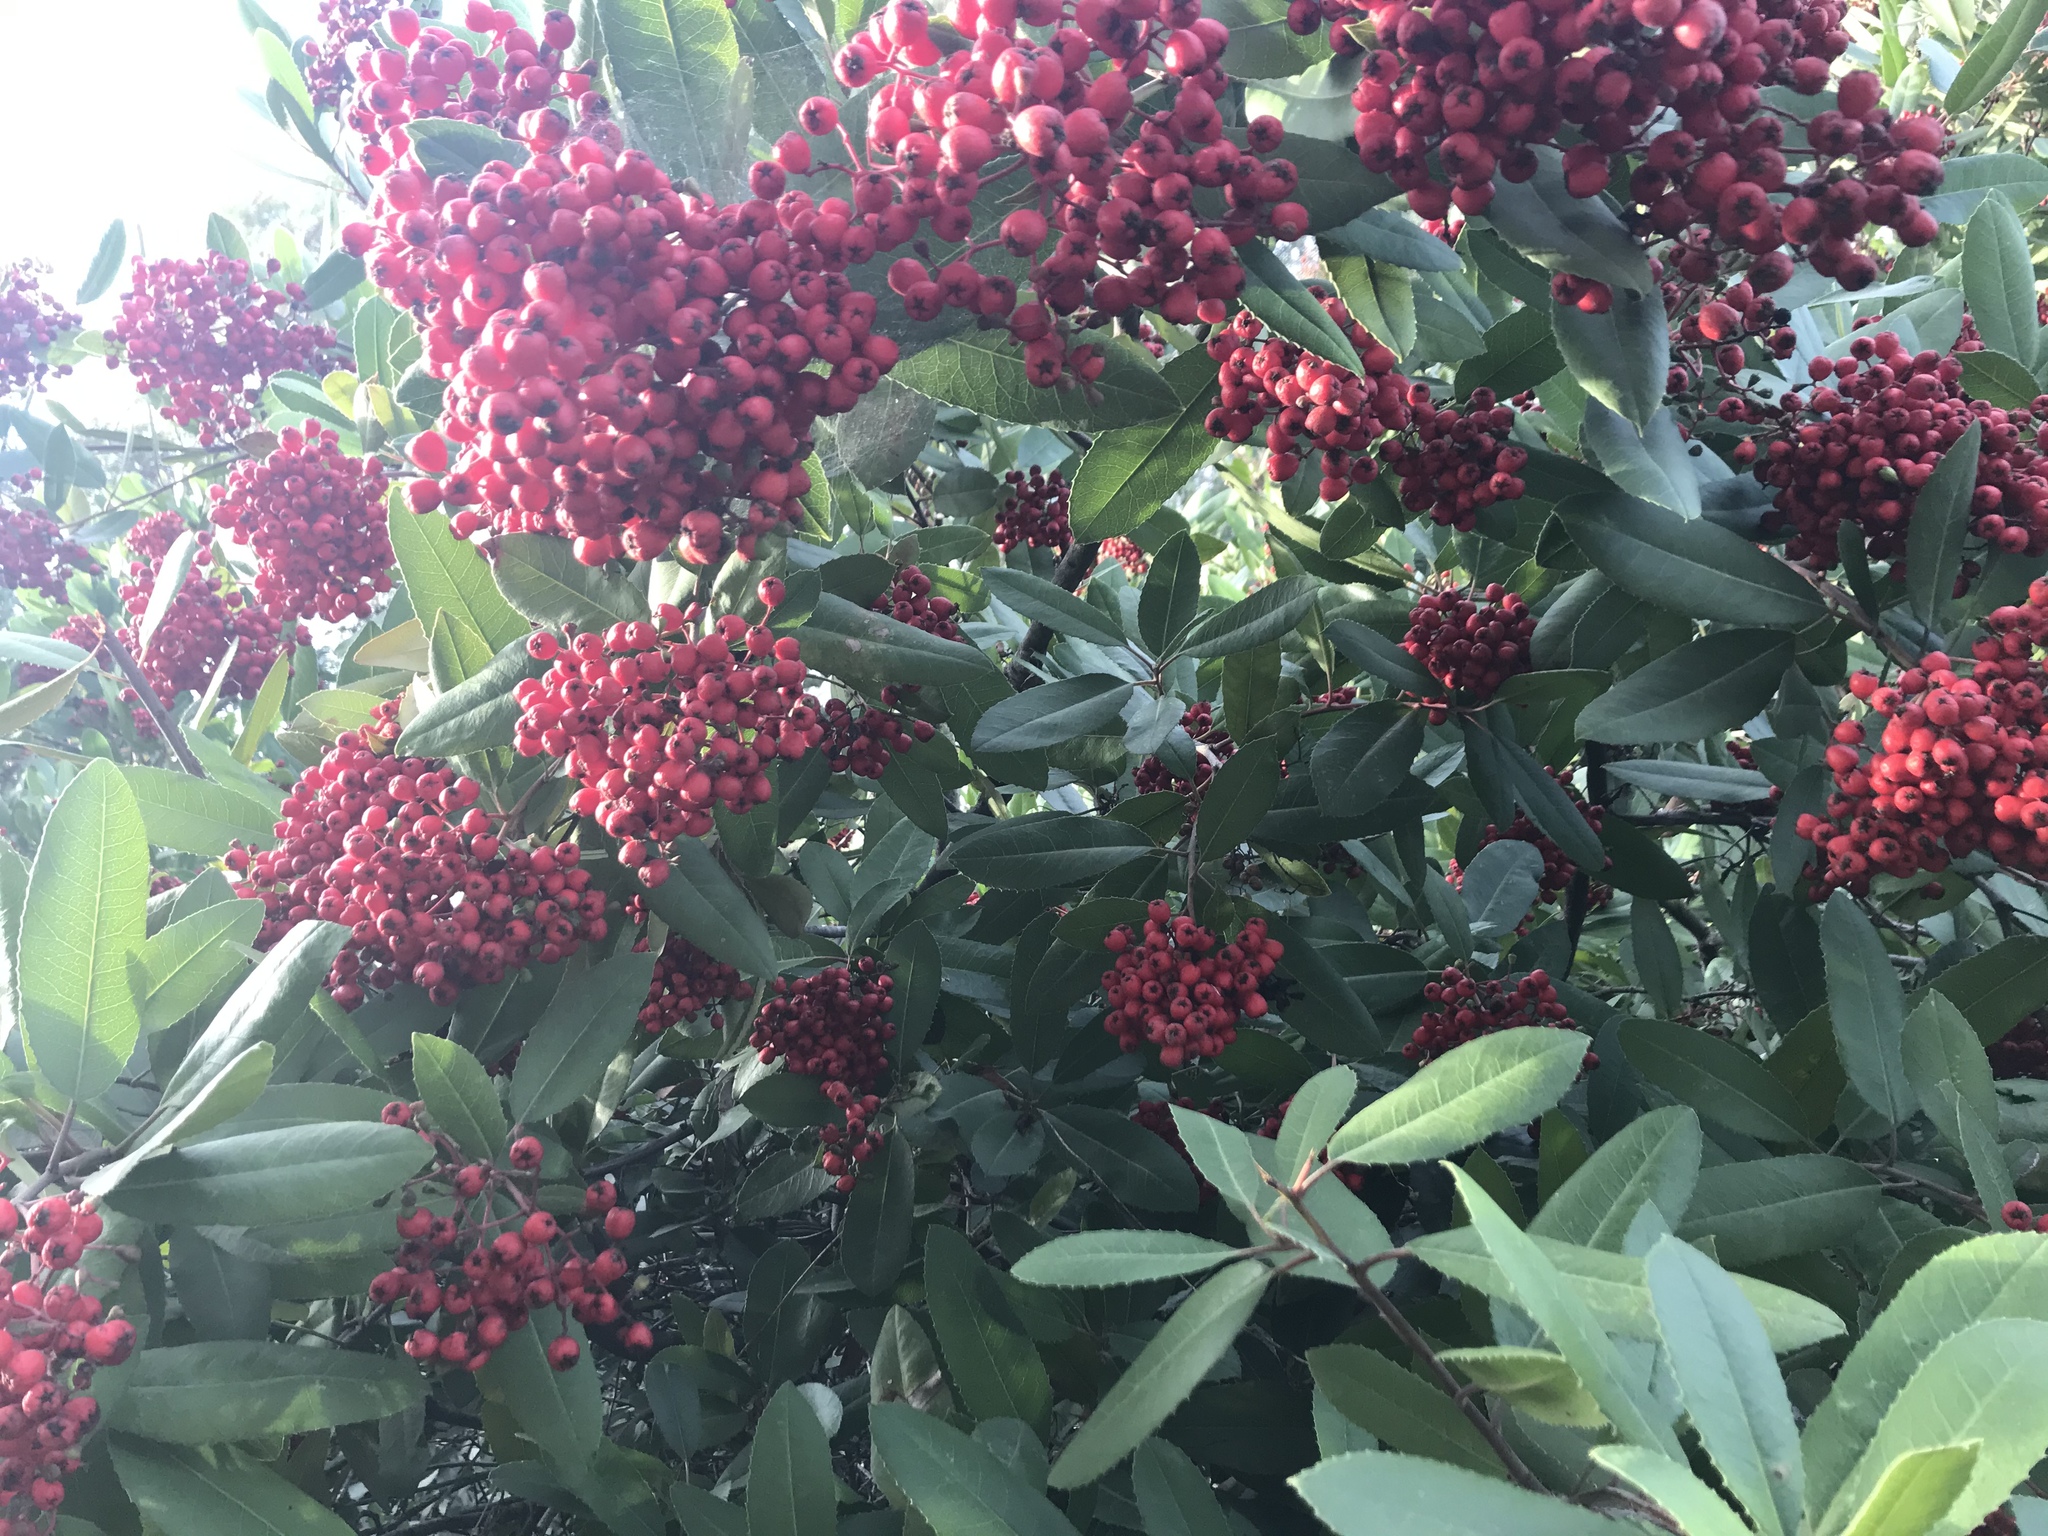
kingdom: Plantae
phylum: Tracheophyta
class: Magnoliopsida
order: Rosales
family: Rosaceae
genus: Heteromeles
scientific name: Heteromeles arbutifolia
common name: California-holly
